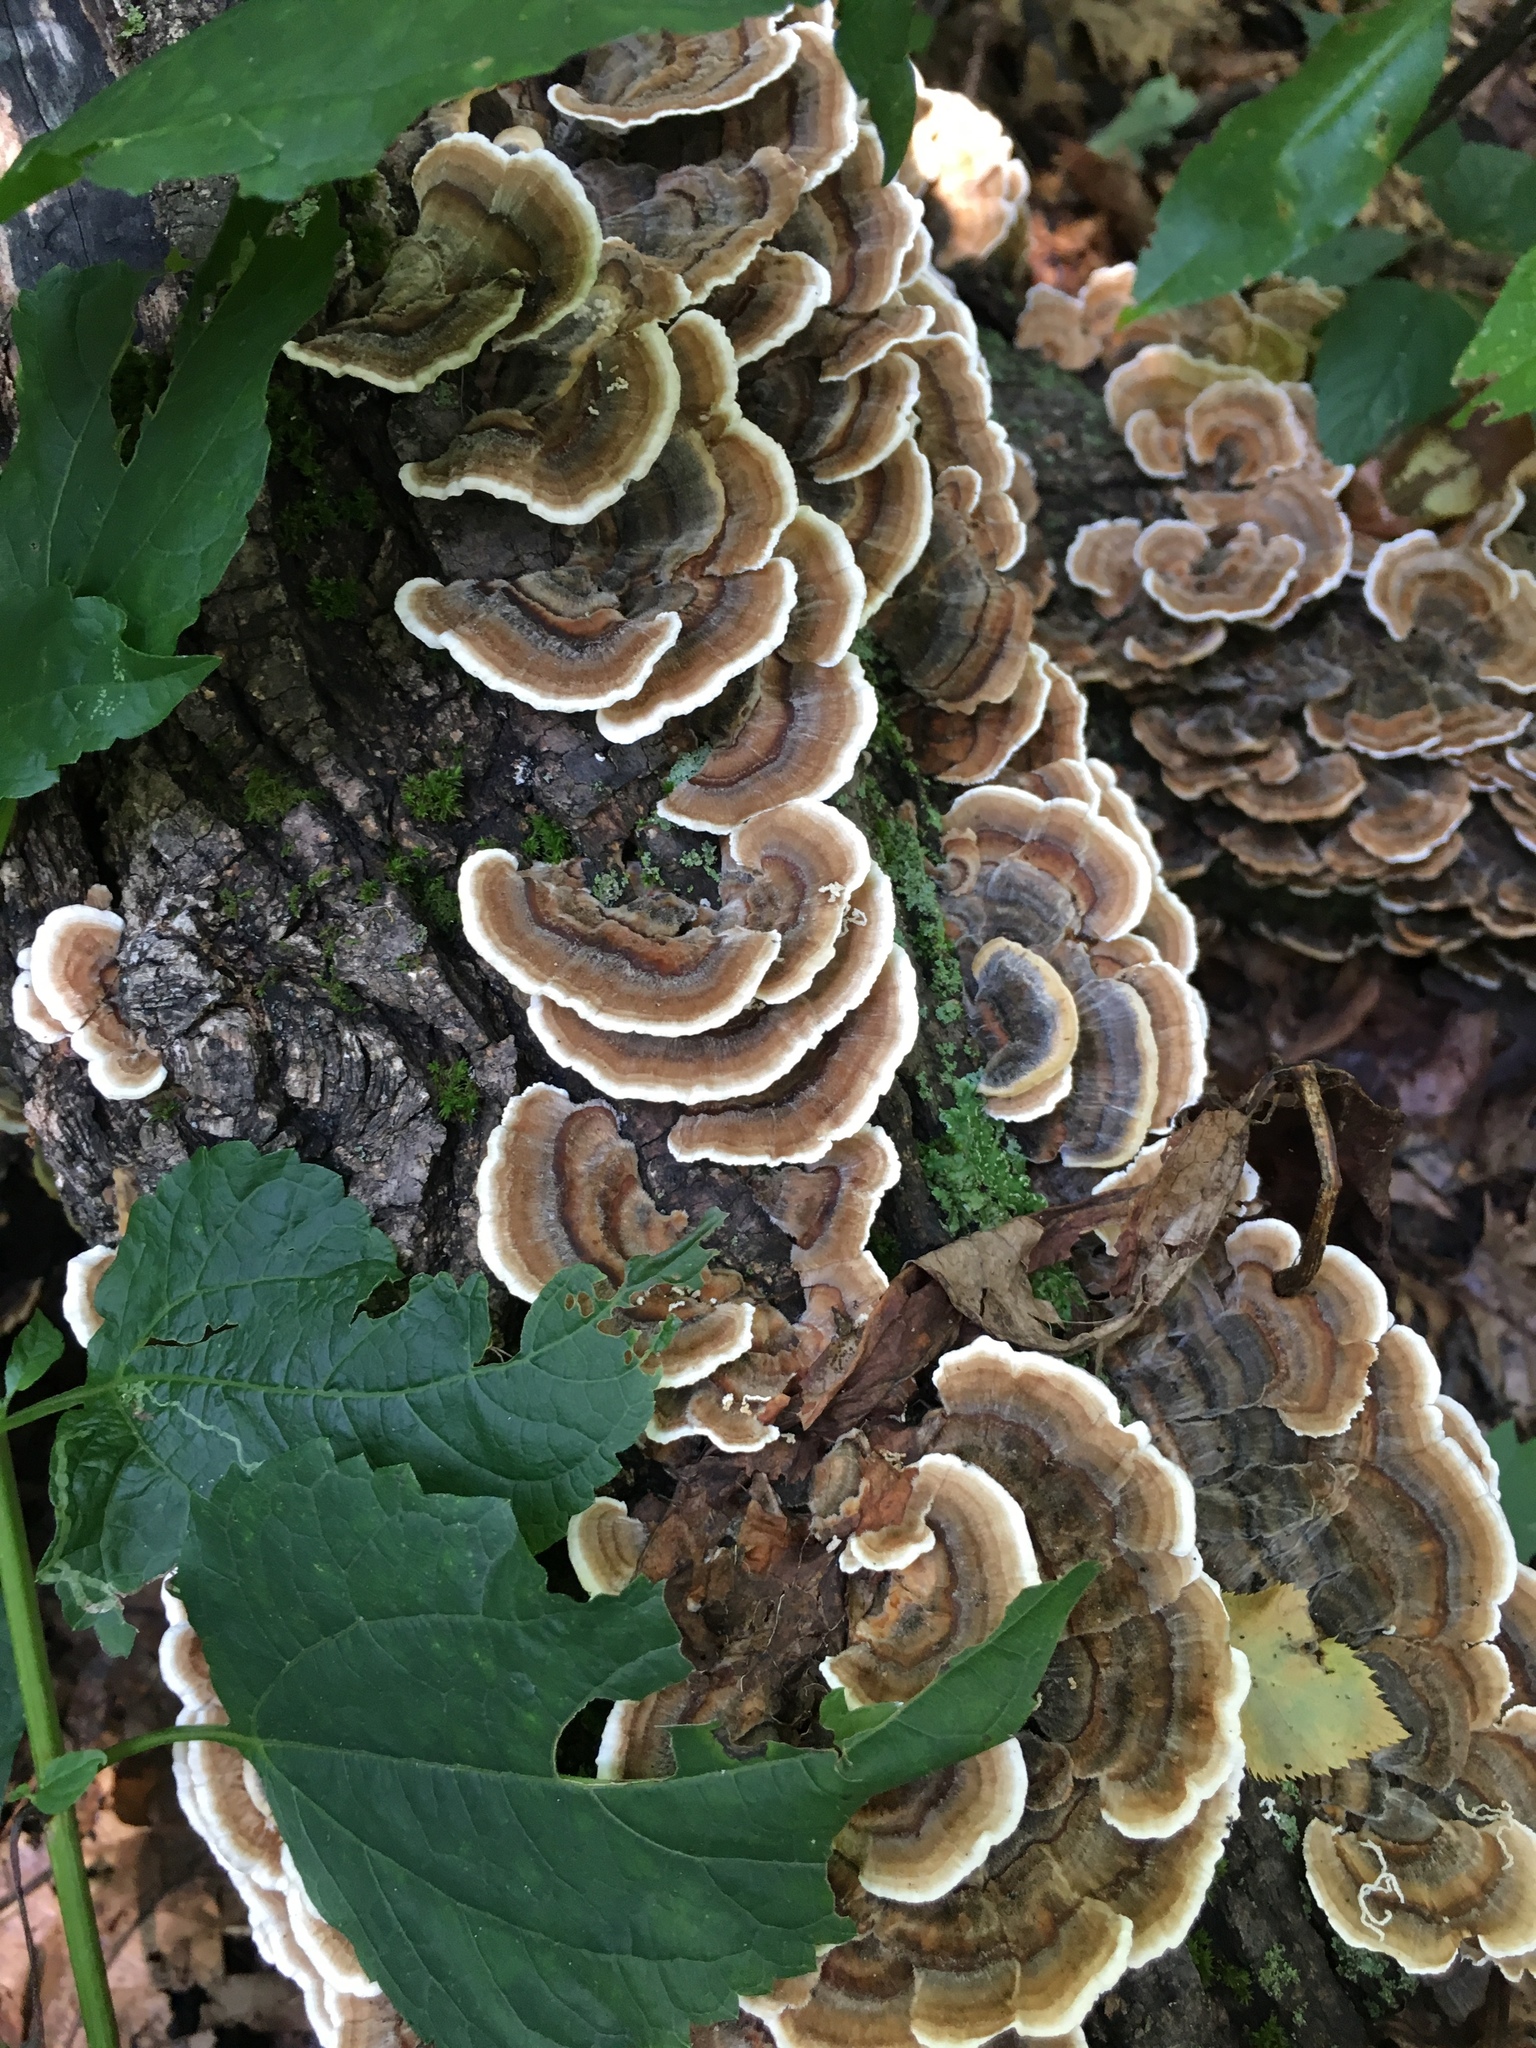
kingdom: Fungi
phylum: Basidiomycota
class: Agaricomycetes
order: Polyporales
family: Polyporaceae
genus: Trametes
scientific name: Trametes versicolor
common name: Turkeytail
